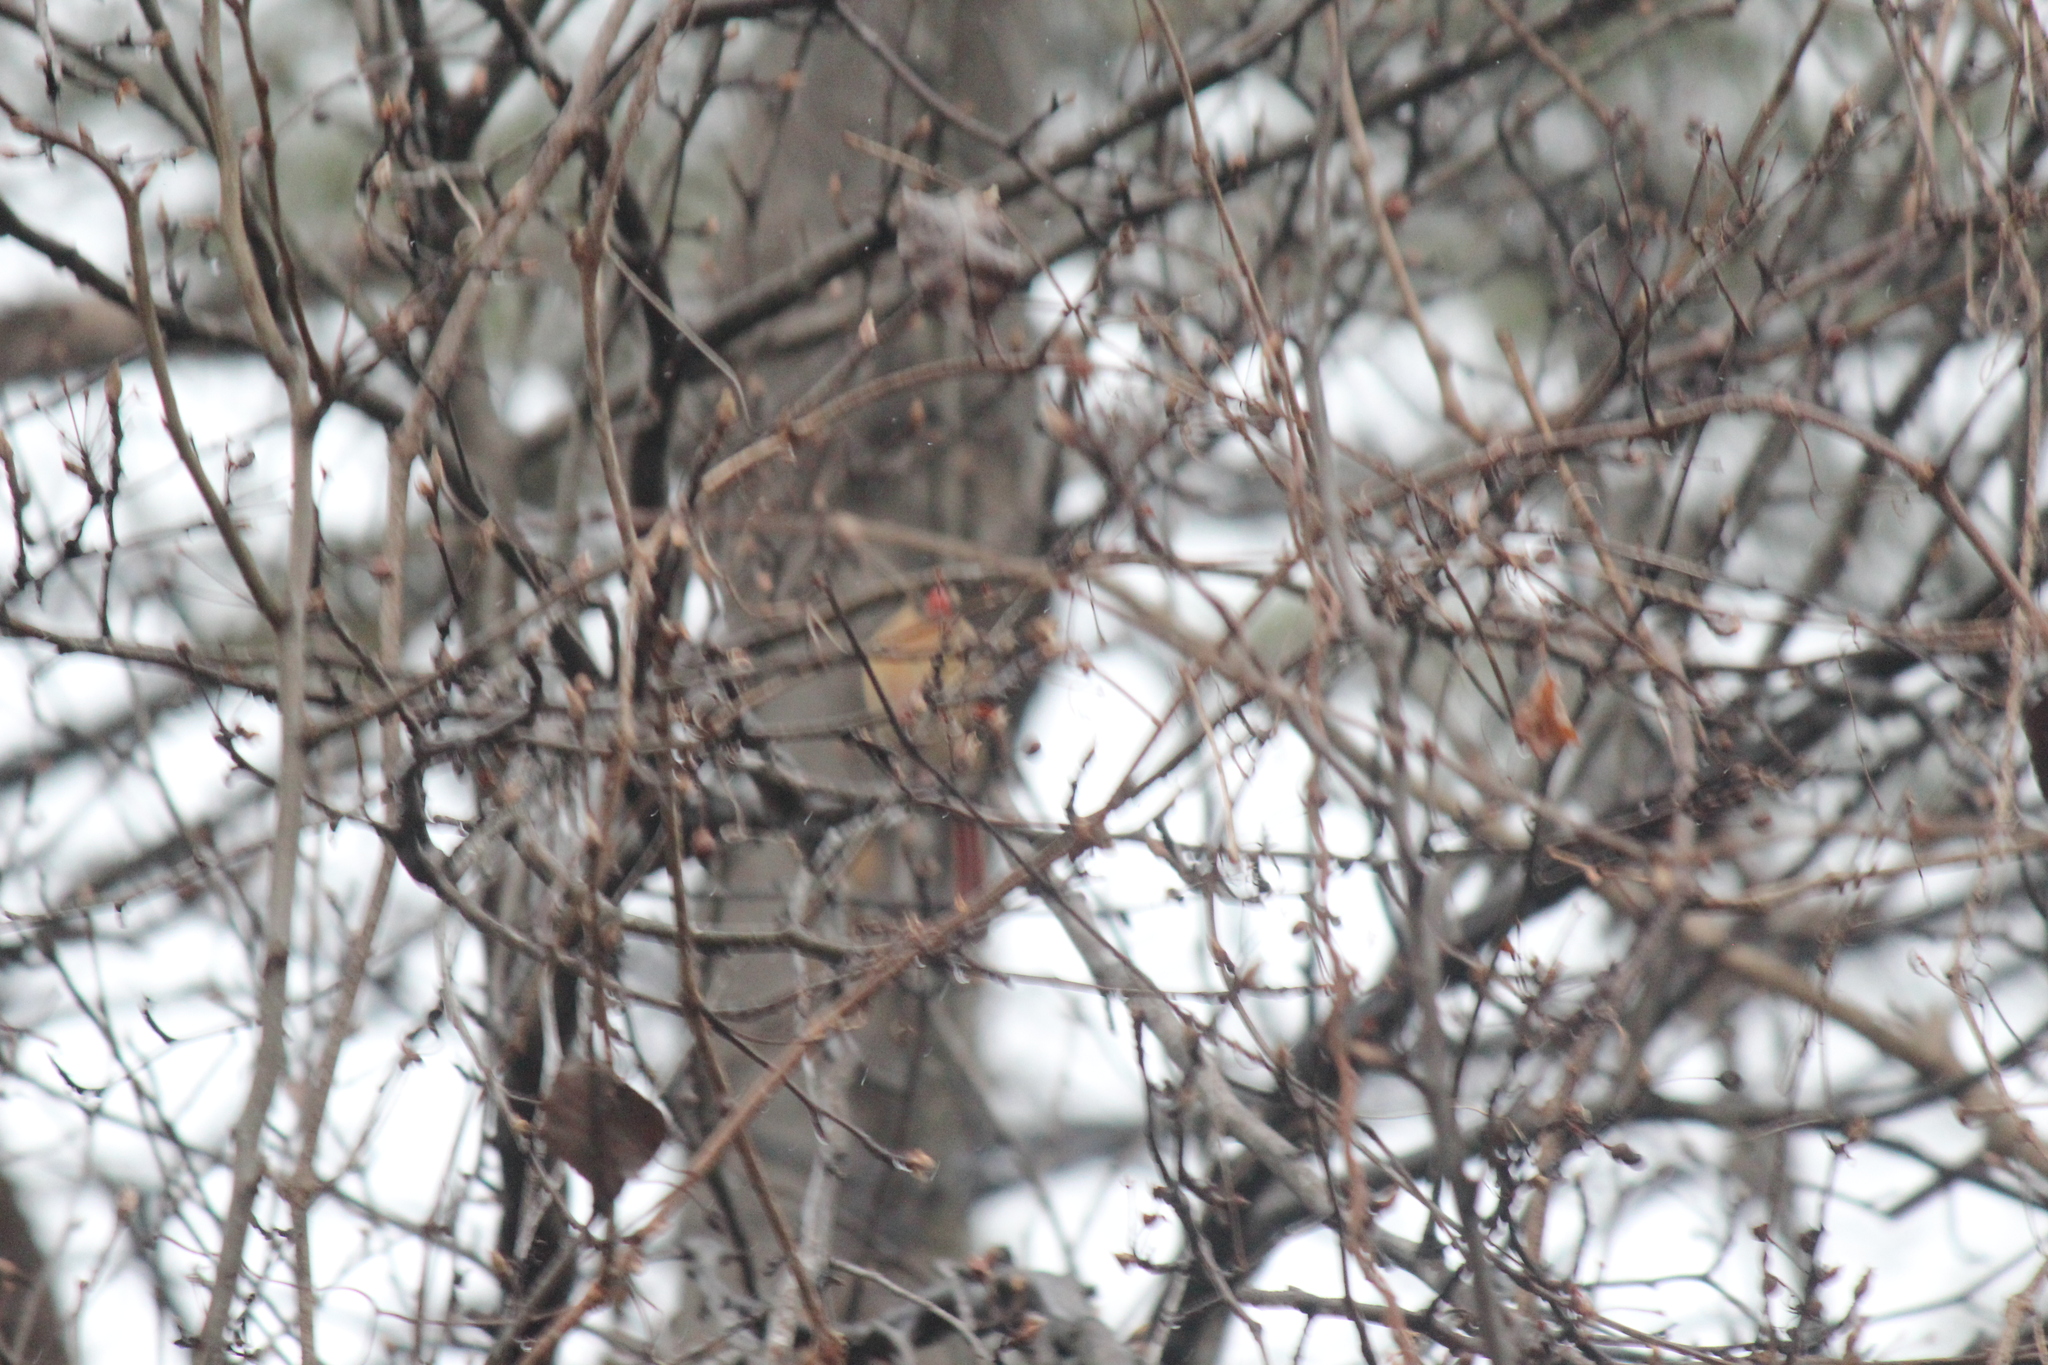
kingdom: Animalia
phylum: Chordata
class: Aves
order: Passeriformes
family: Cardinalidae
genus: Cardinalis
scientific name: Cardinalis cardinalis
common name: Northern cardinal
